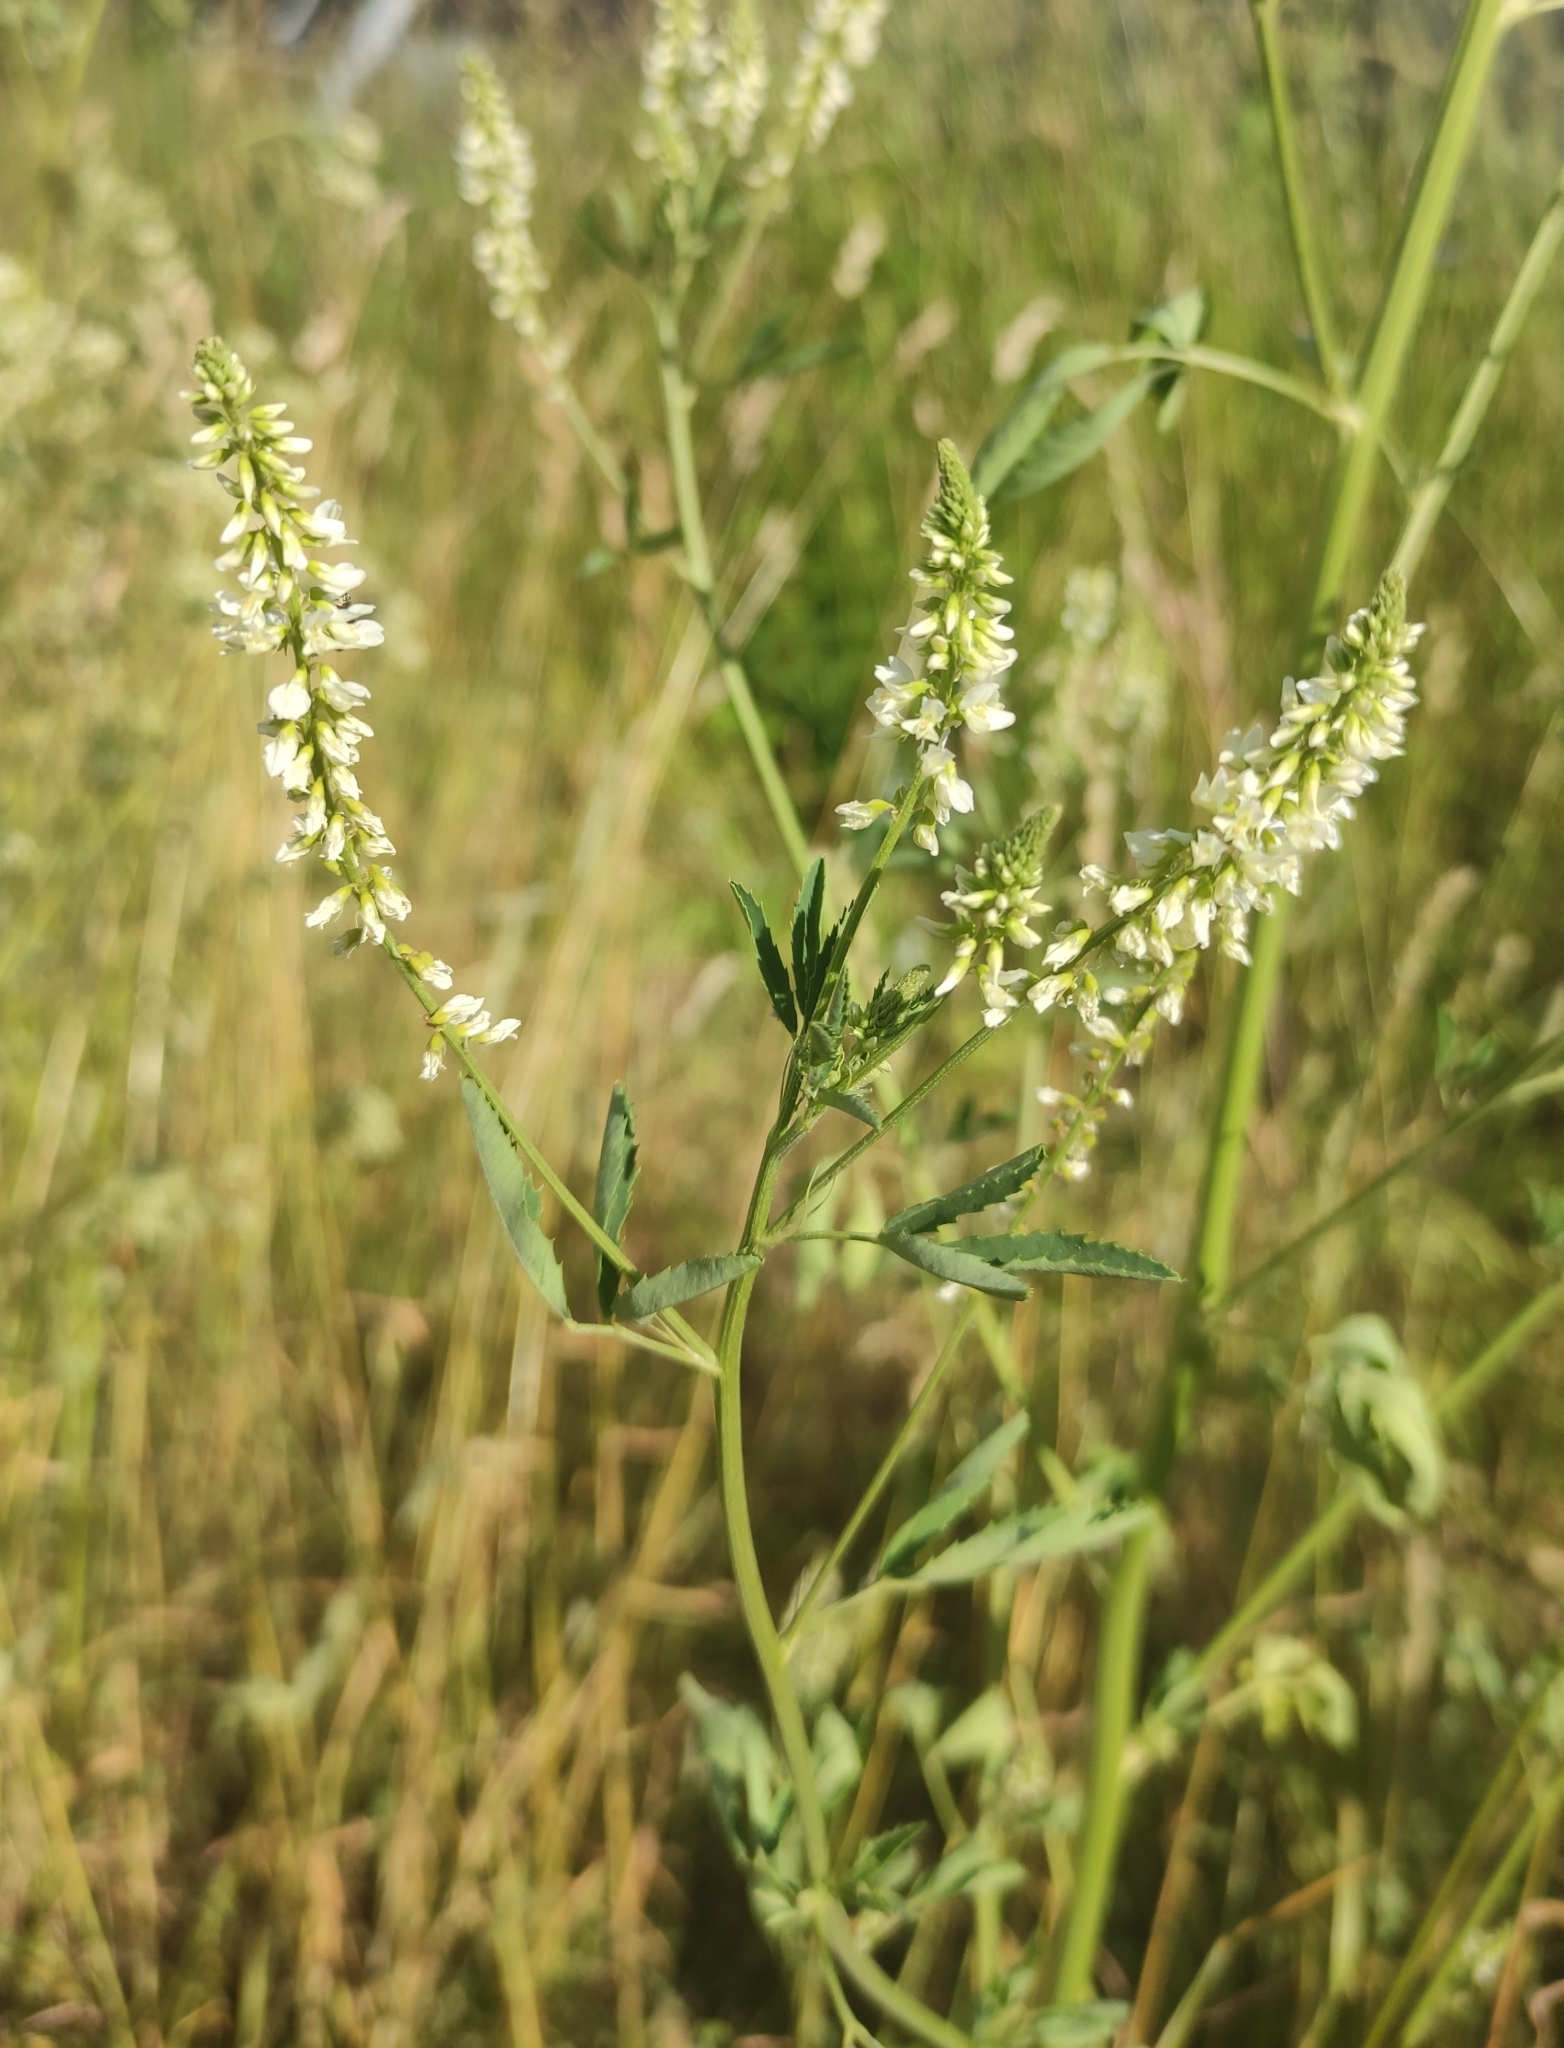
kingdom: Plantae
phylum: Tracheophyta
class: Magnoliopsida
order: Fabales
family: Fabaceae
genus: Melilotus
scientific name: Melilotus albus
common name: White melilot
